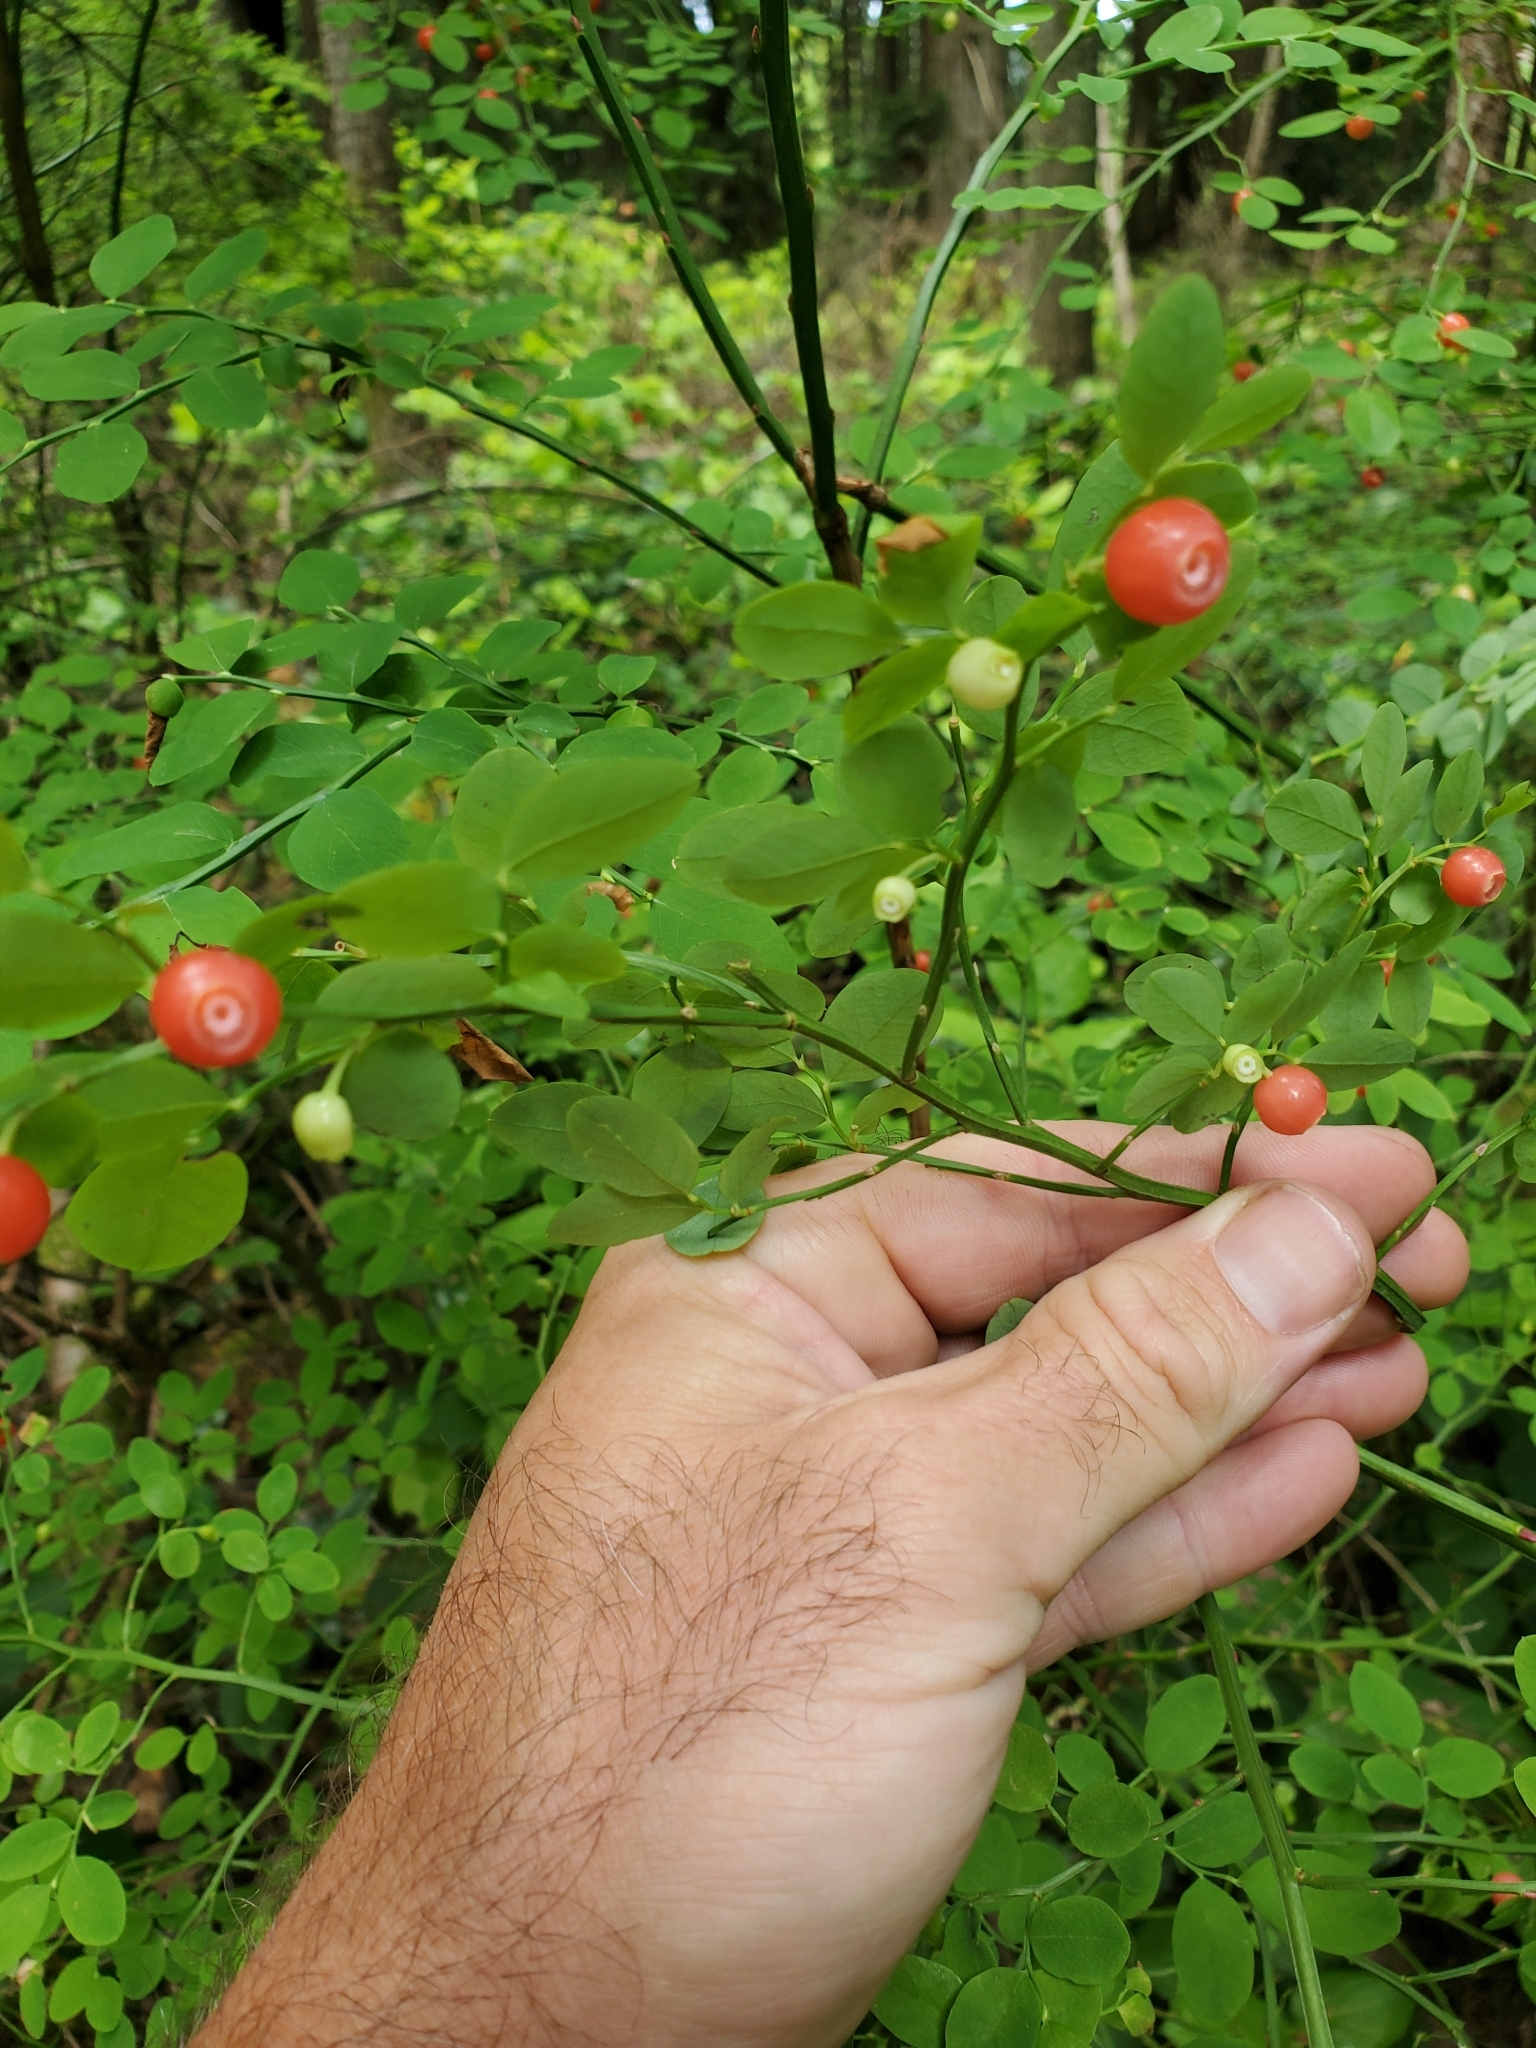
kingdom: Plantae
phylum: Tracheophyta
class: Magnoliopsida
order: Ericales
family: Ericaceae
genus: Vaccinium
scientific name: Vaccinium parvifolium
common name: Red-huckleberry
